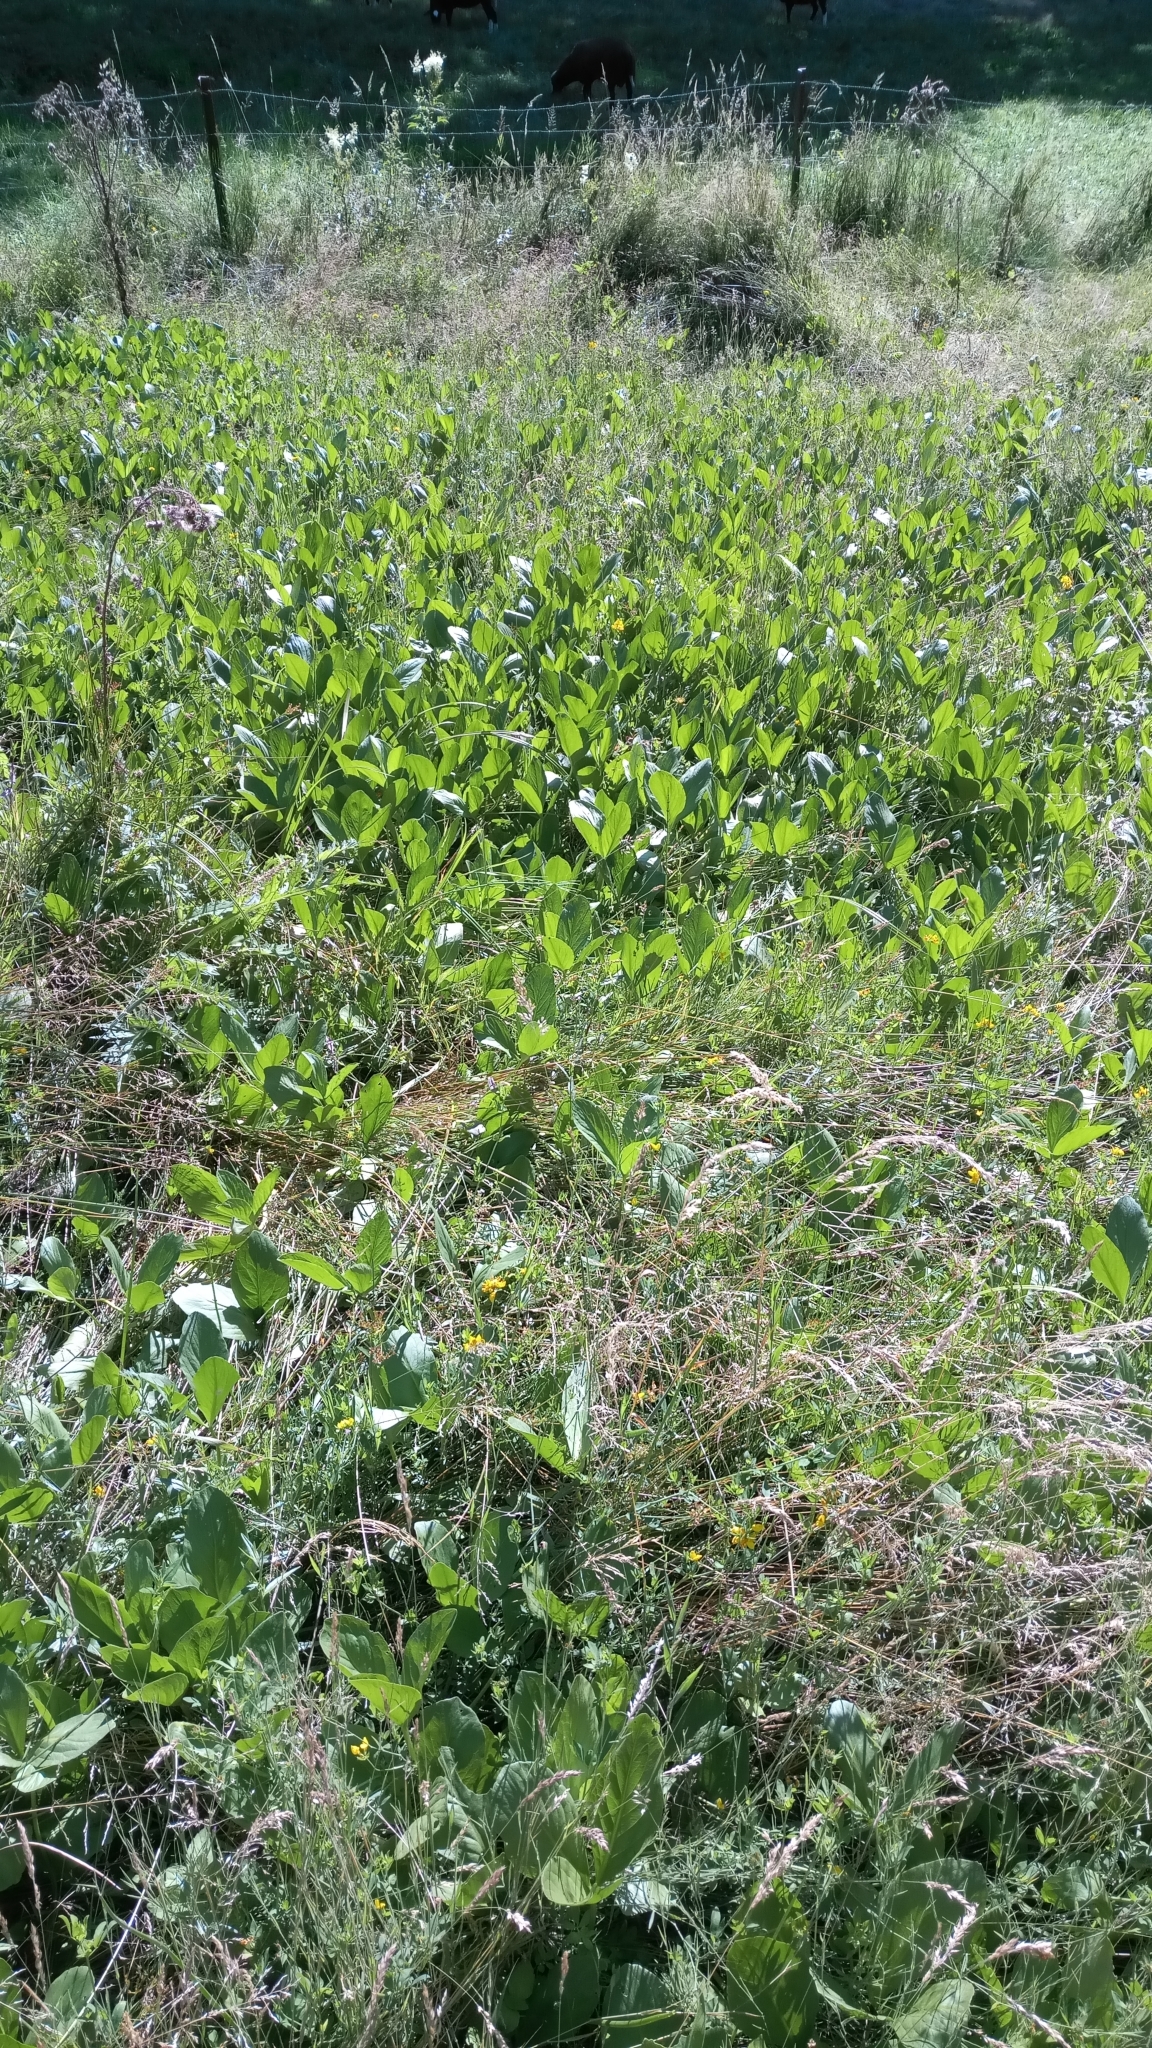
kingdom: Plantae
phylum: Tracheophyta
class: Magnoliopsida
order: Asterales
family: Menyanthaceae
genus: Menyanthes
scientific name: Menyanthes trifoliata
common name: Bogbean
